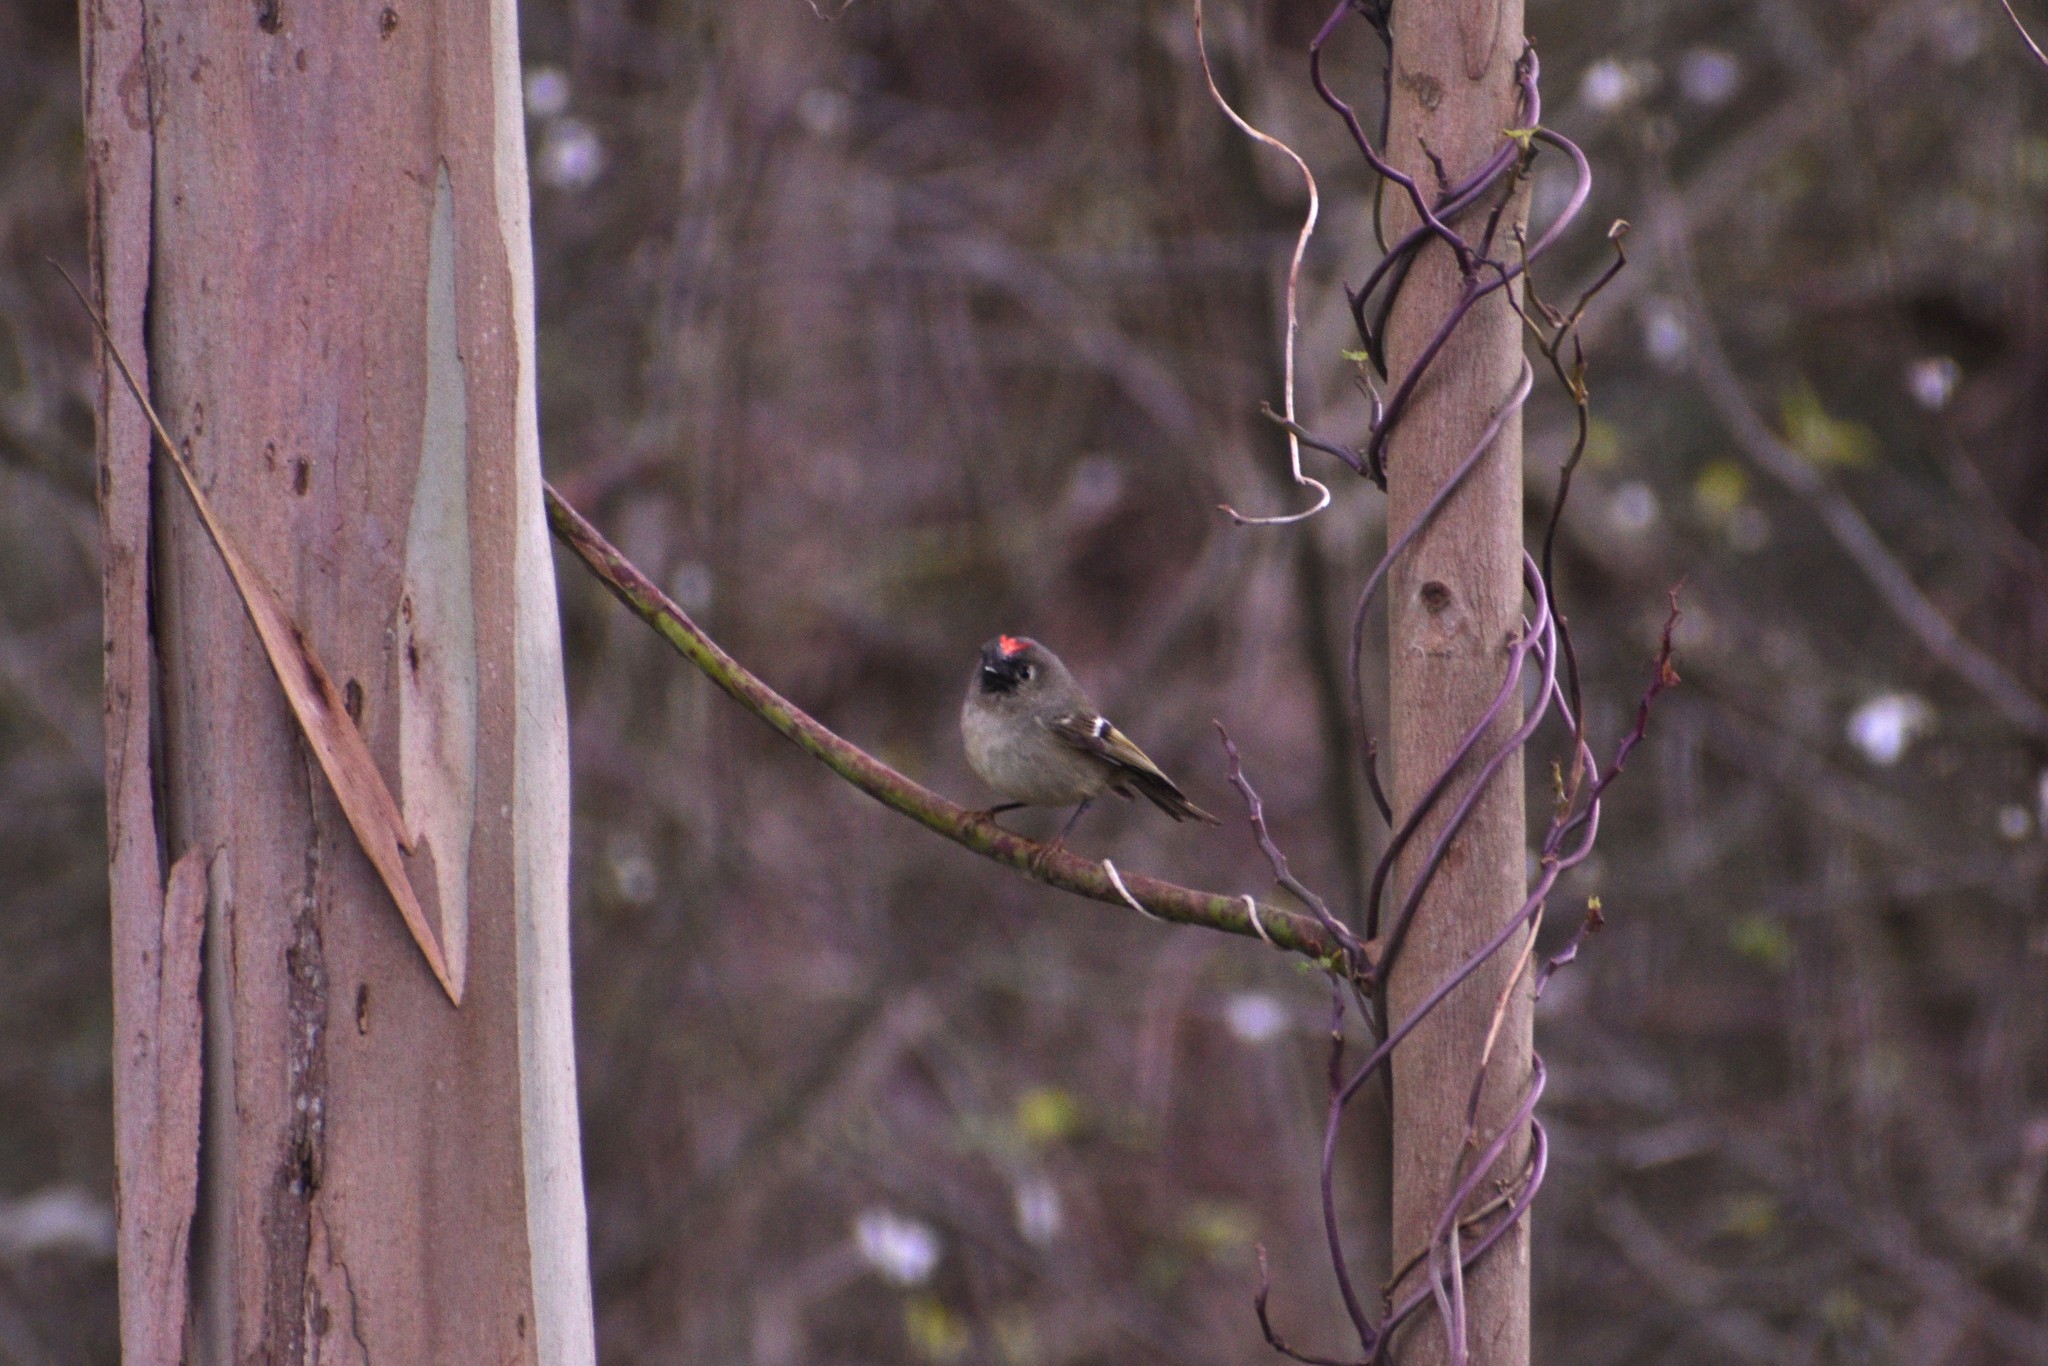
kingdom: Animalia
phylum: Chordata
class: Aves
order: Passeriformes
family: Regulidae
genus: Regulus
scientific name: Regulus calendula
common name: Ruby-crowned kinglet
